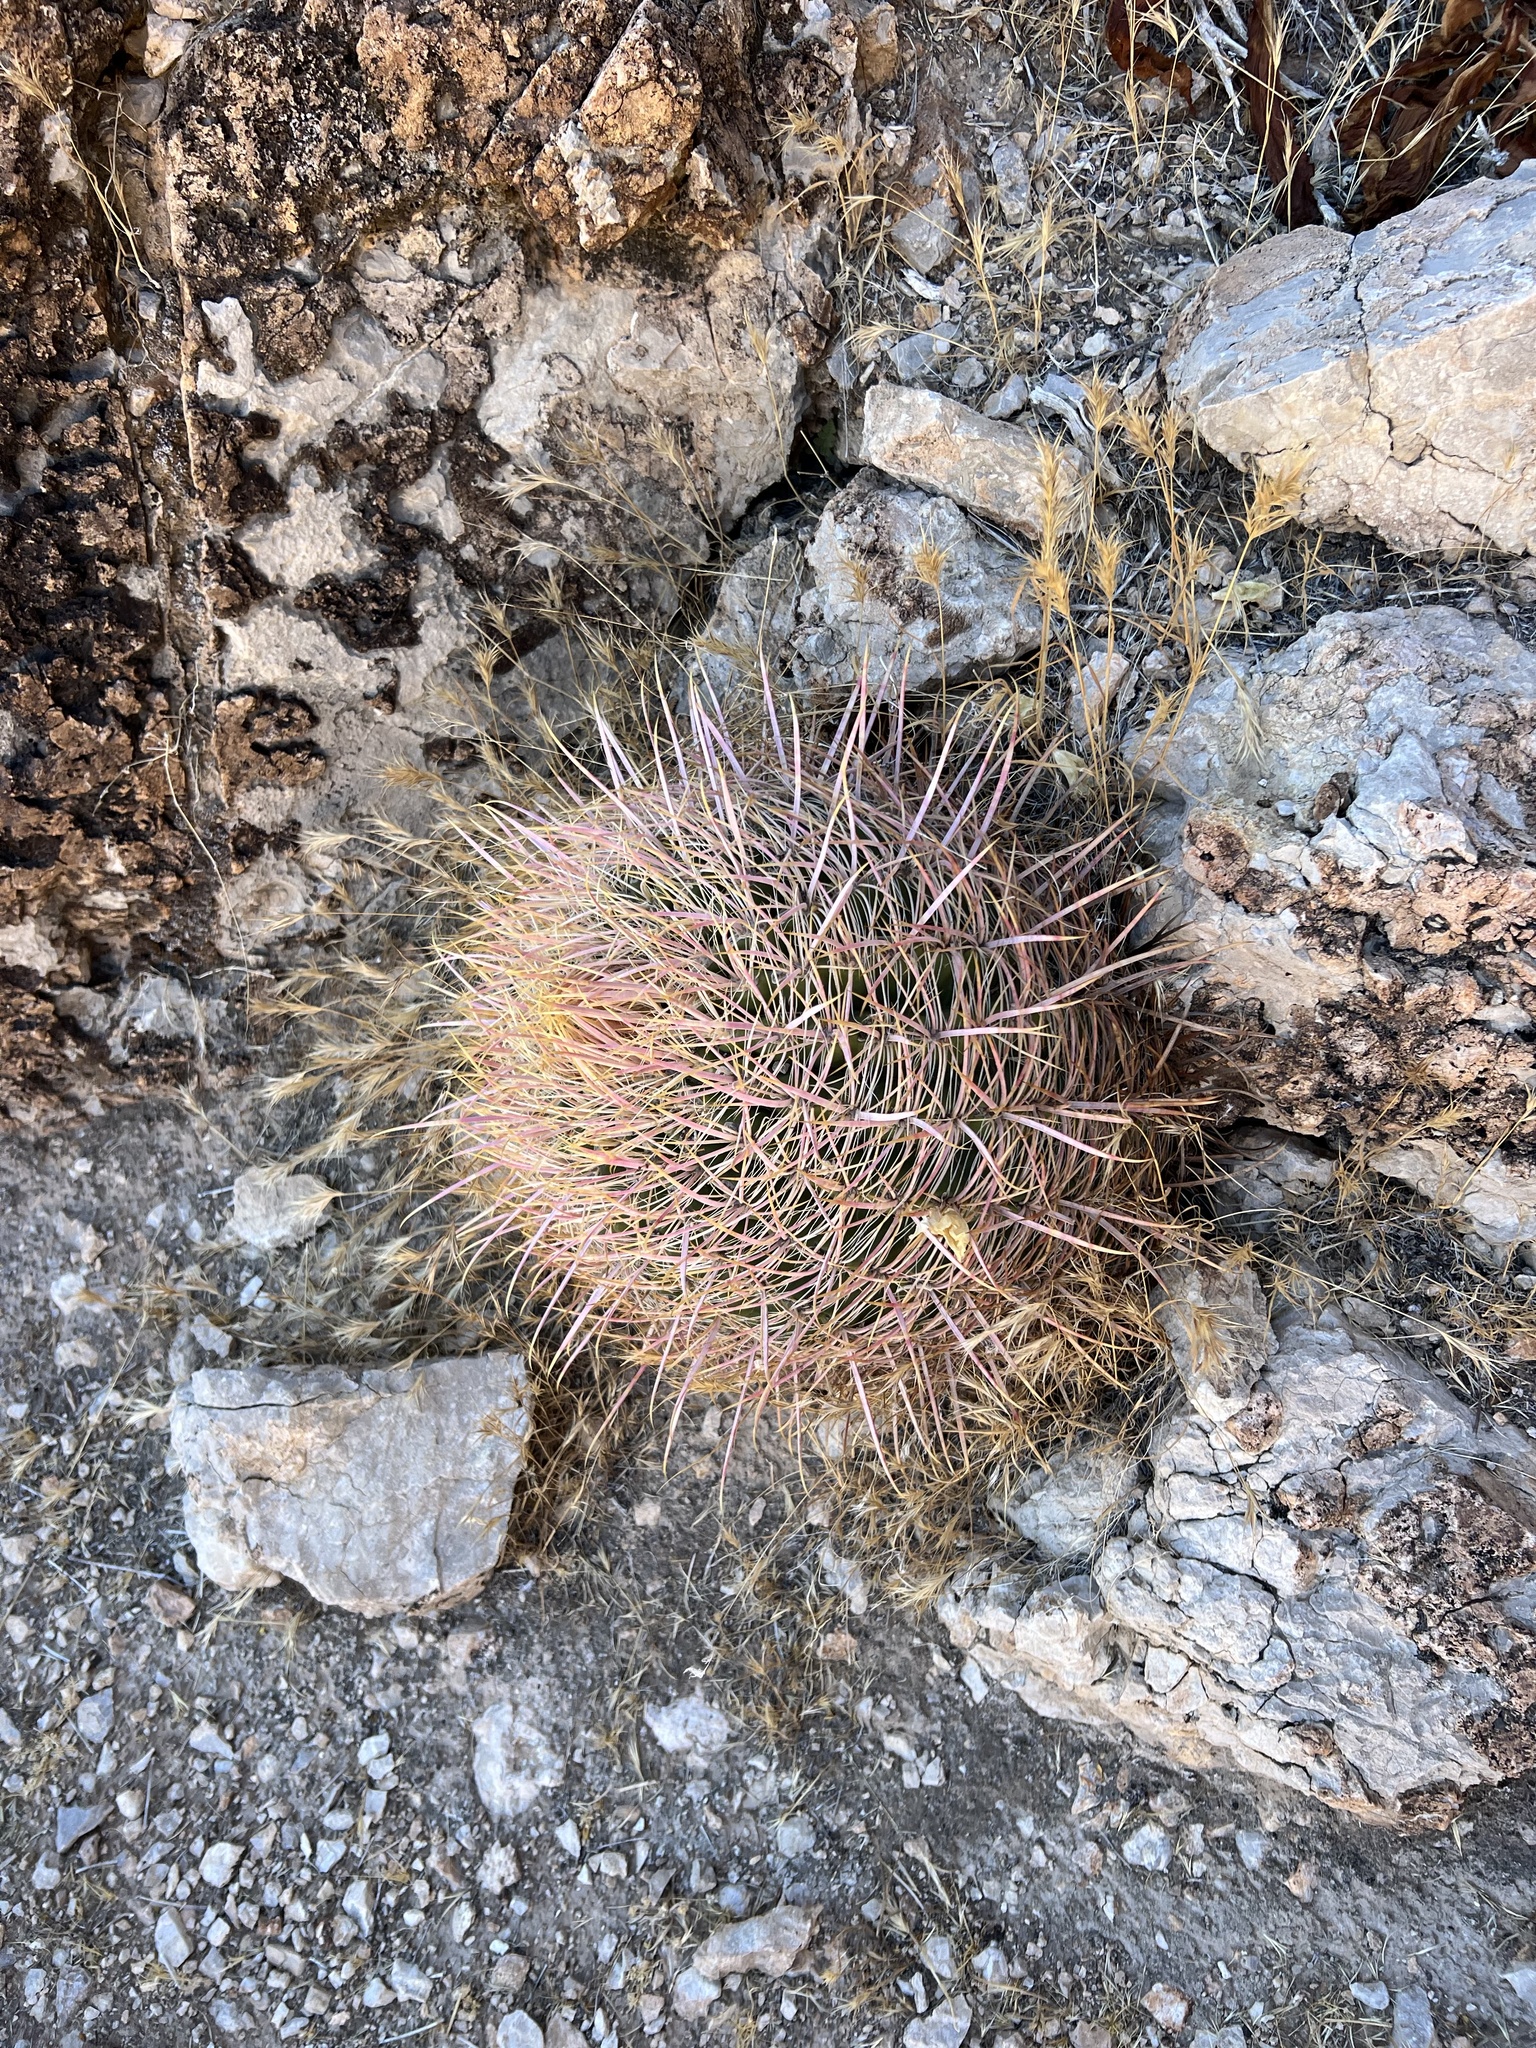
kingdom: Plantae
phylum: Tracheophyta
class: Magnoliopsida
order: Caryophyllales
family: Cactaceae
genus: Ferocactus
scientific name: Ferocactus cylindraceus
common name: California barrel cactus
